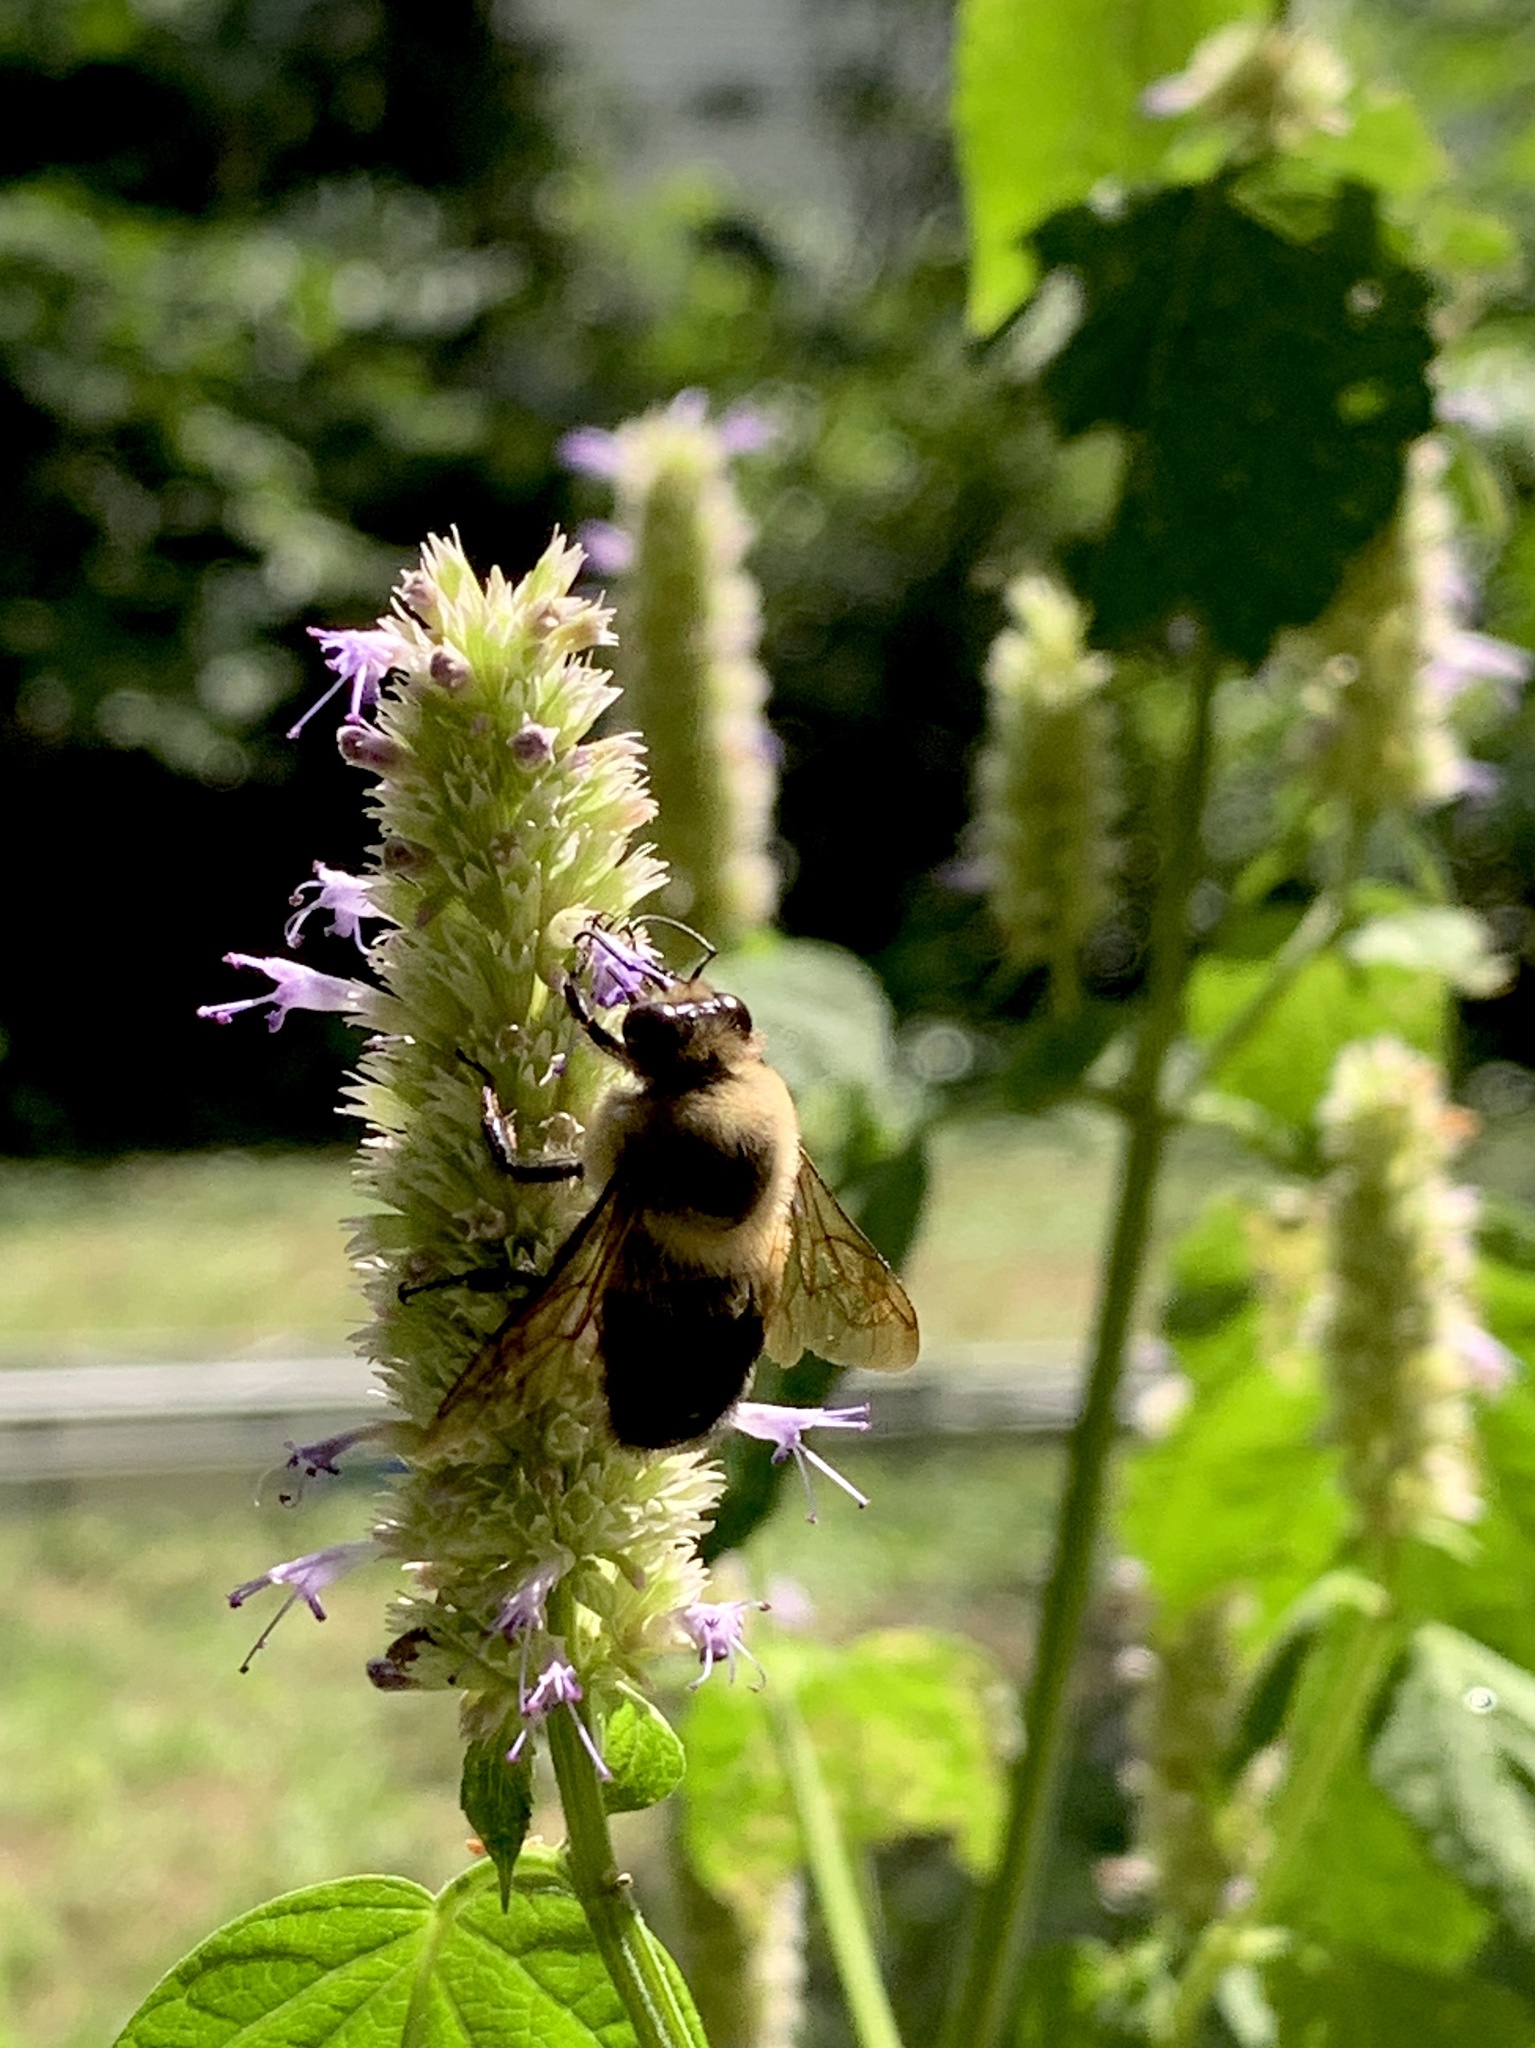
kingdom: Animalia
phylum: Arthropoda
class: Insecta
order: Hymenoptera
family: Apidae
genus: Bombus
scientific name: Bombus griseocollis
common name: Brown-belted bumble bee
